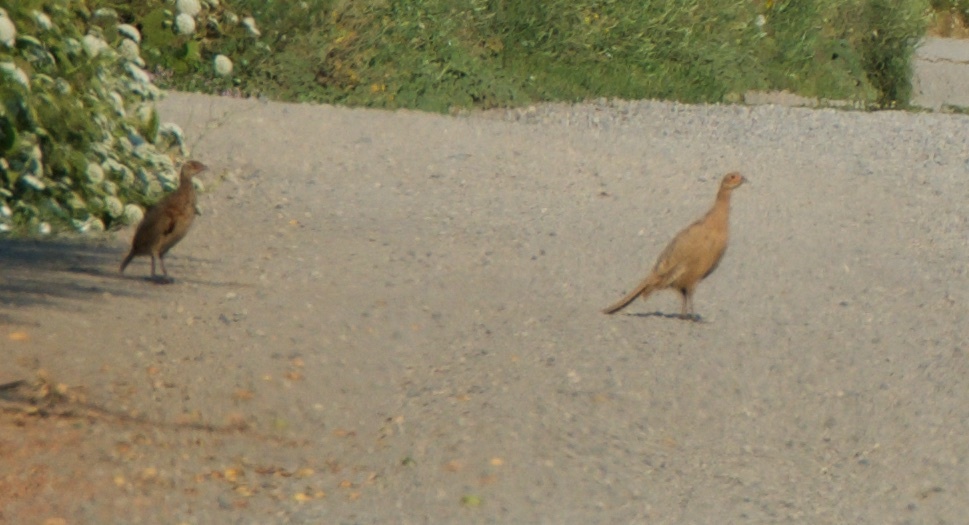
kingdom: Animalia
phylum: Chordata
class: Aves
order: Galliformes
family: Phasianidae
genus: Phasianus
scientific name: Phasianus colchicus
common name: Common pheasant
